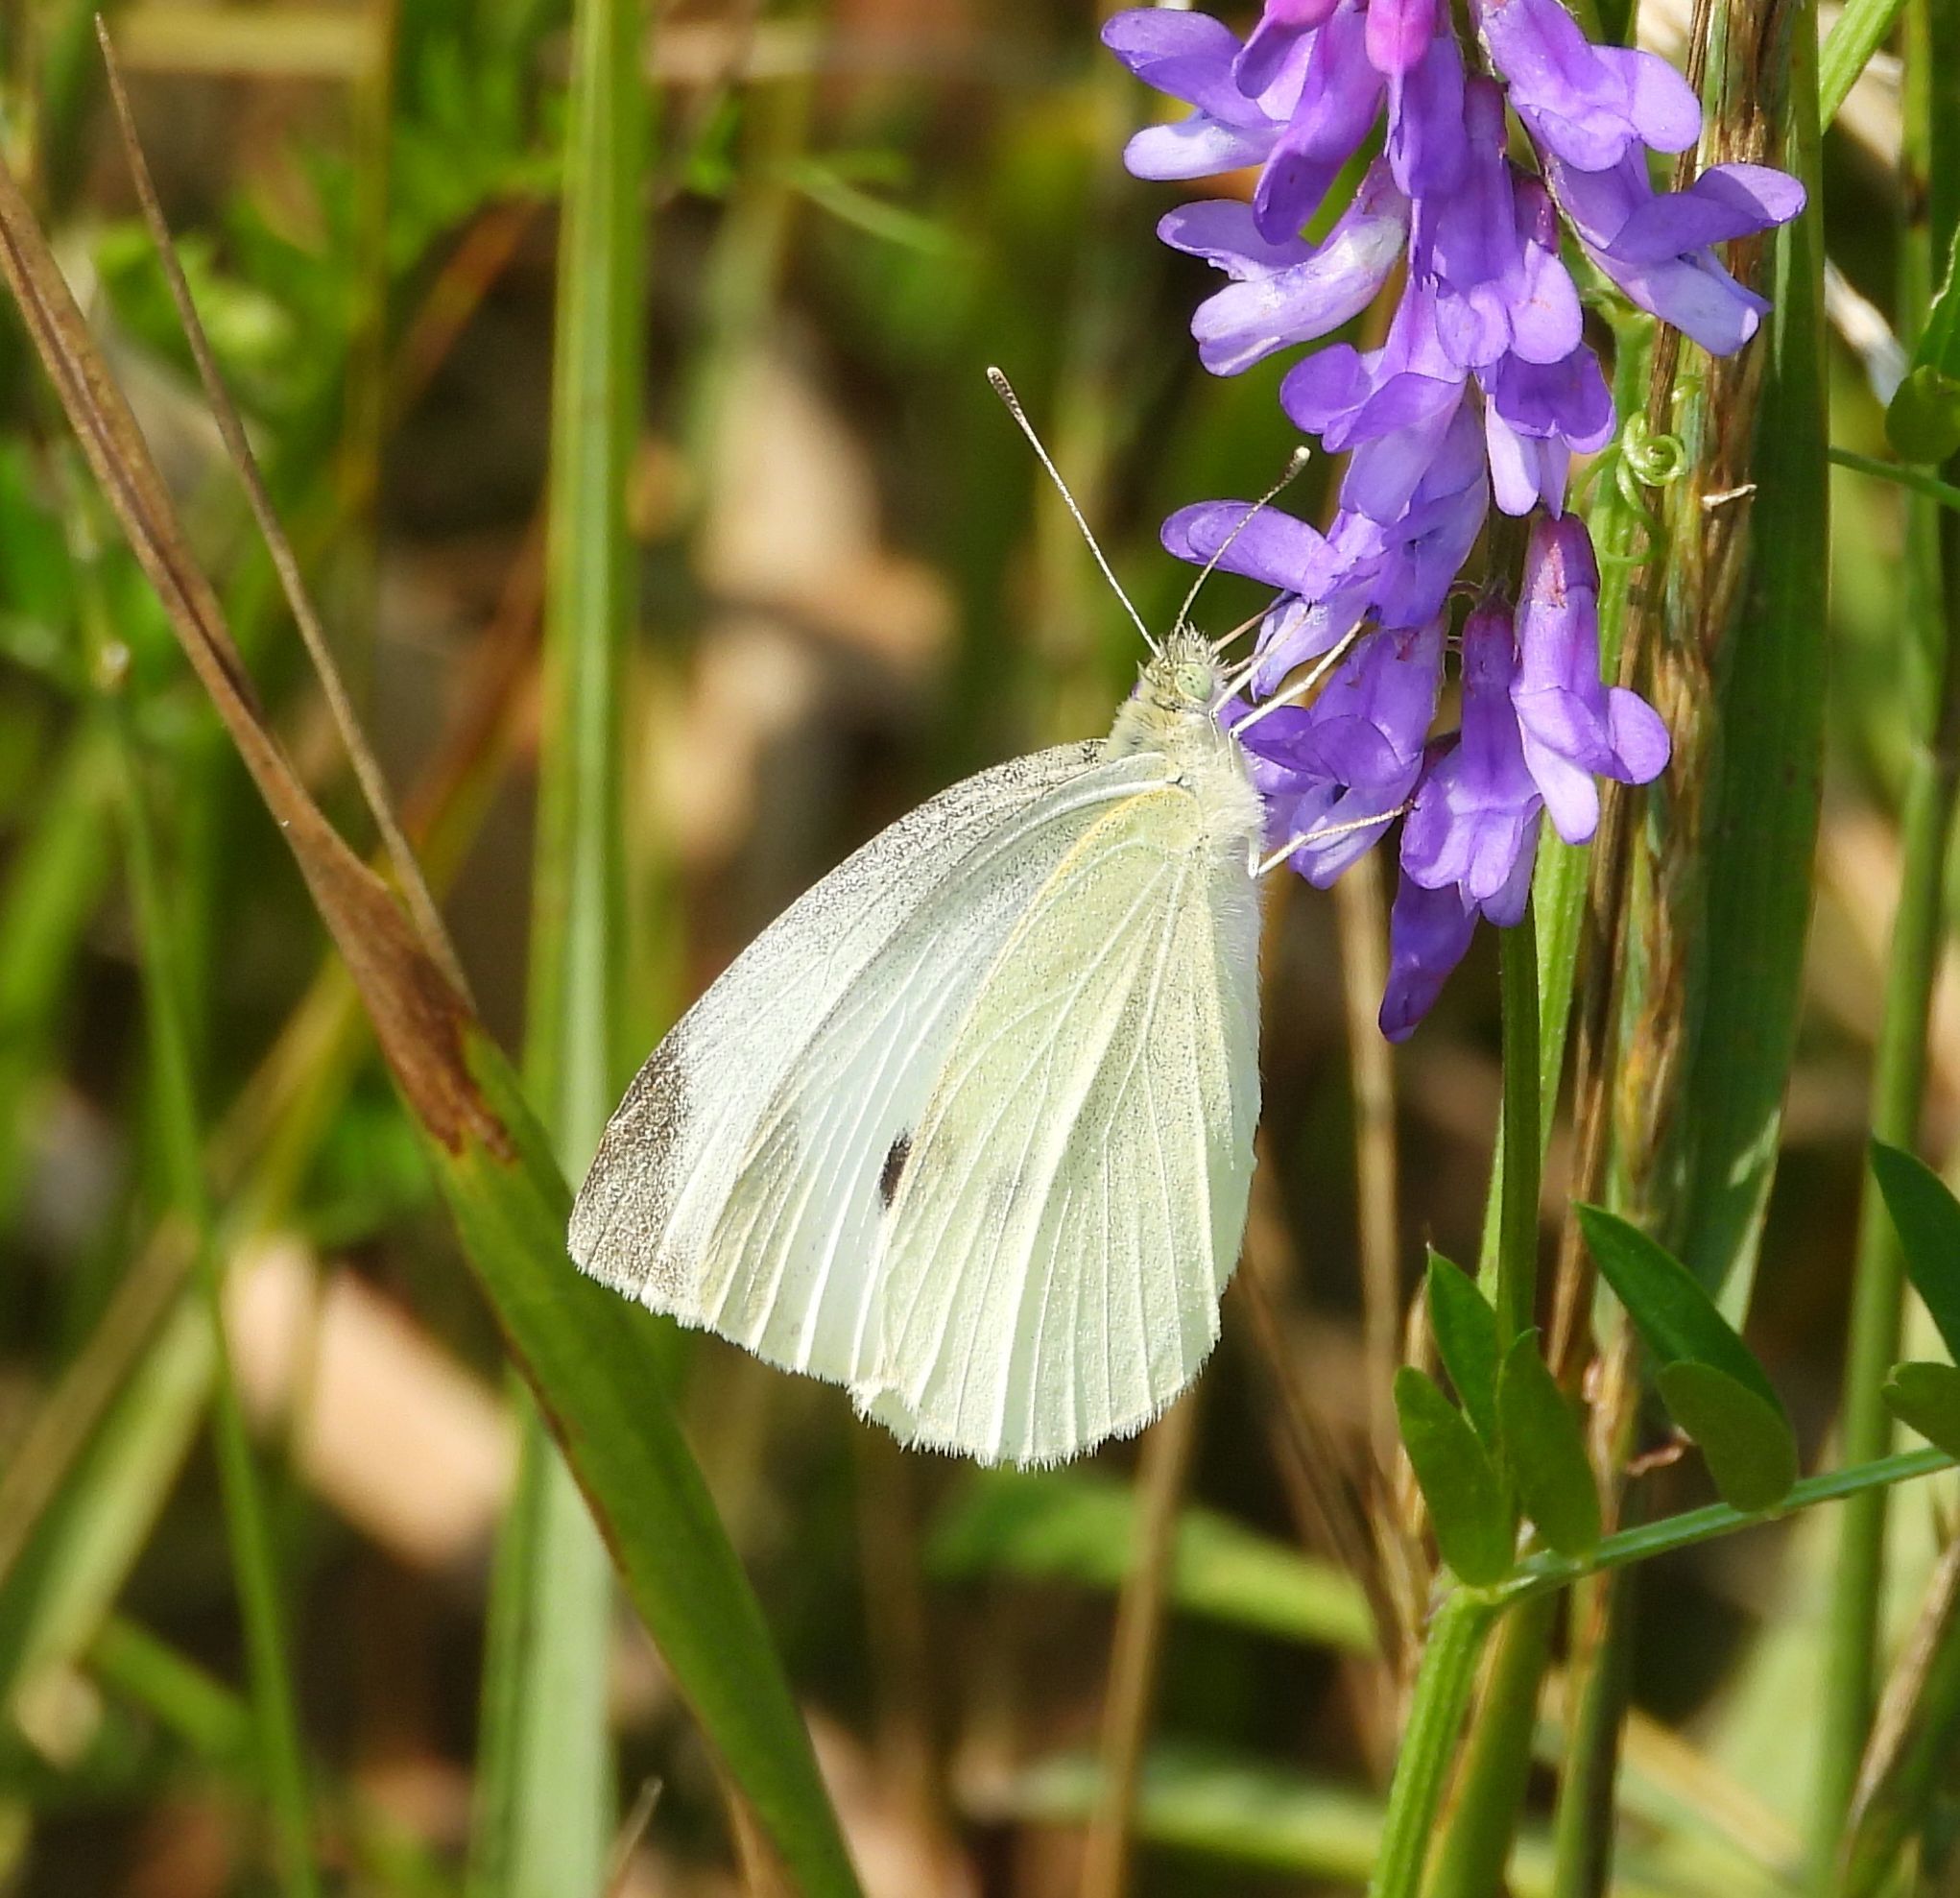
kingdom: Animalia
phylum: Arthropoda
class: Insecta
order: Lepidoptera
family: Pieridae
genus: Pieris
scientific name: Pieris rapae
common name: Small white
